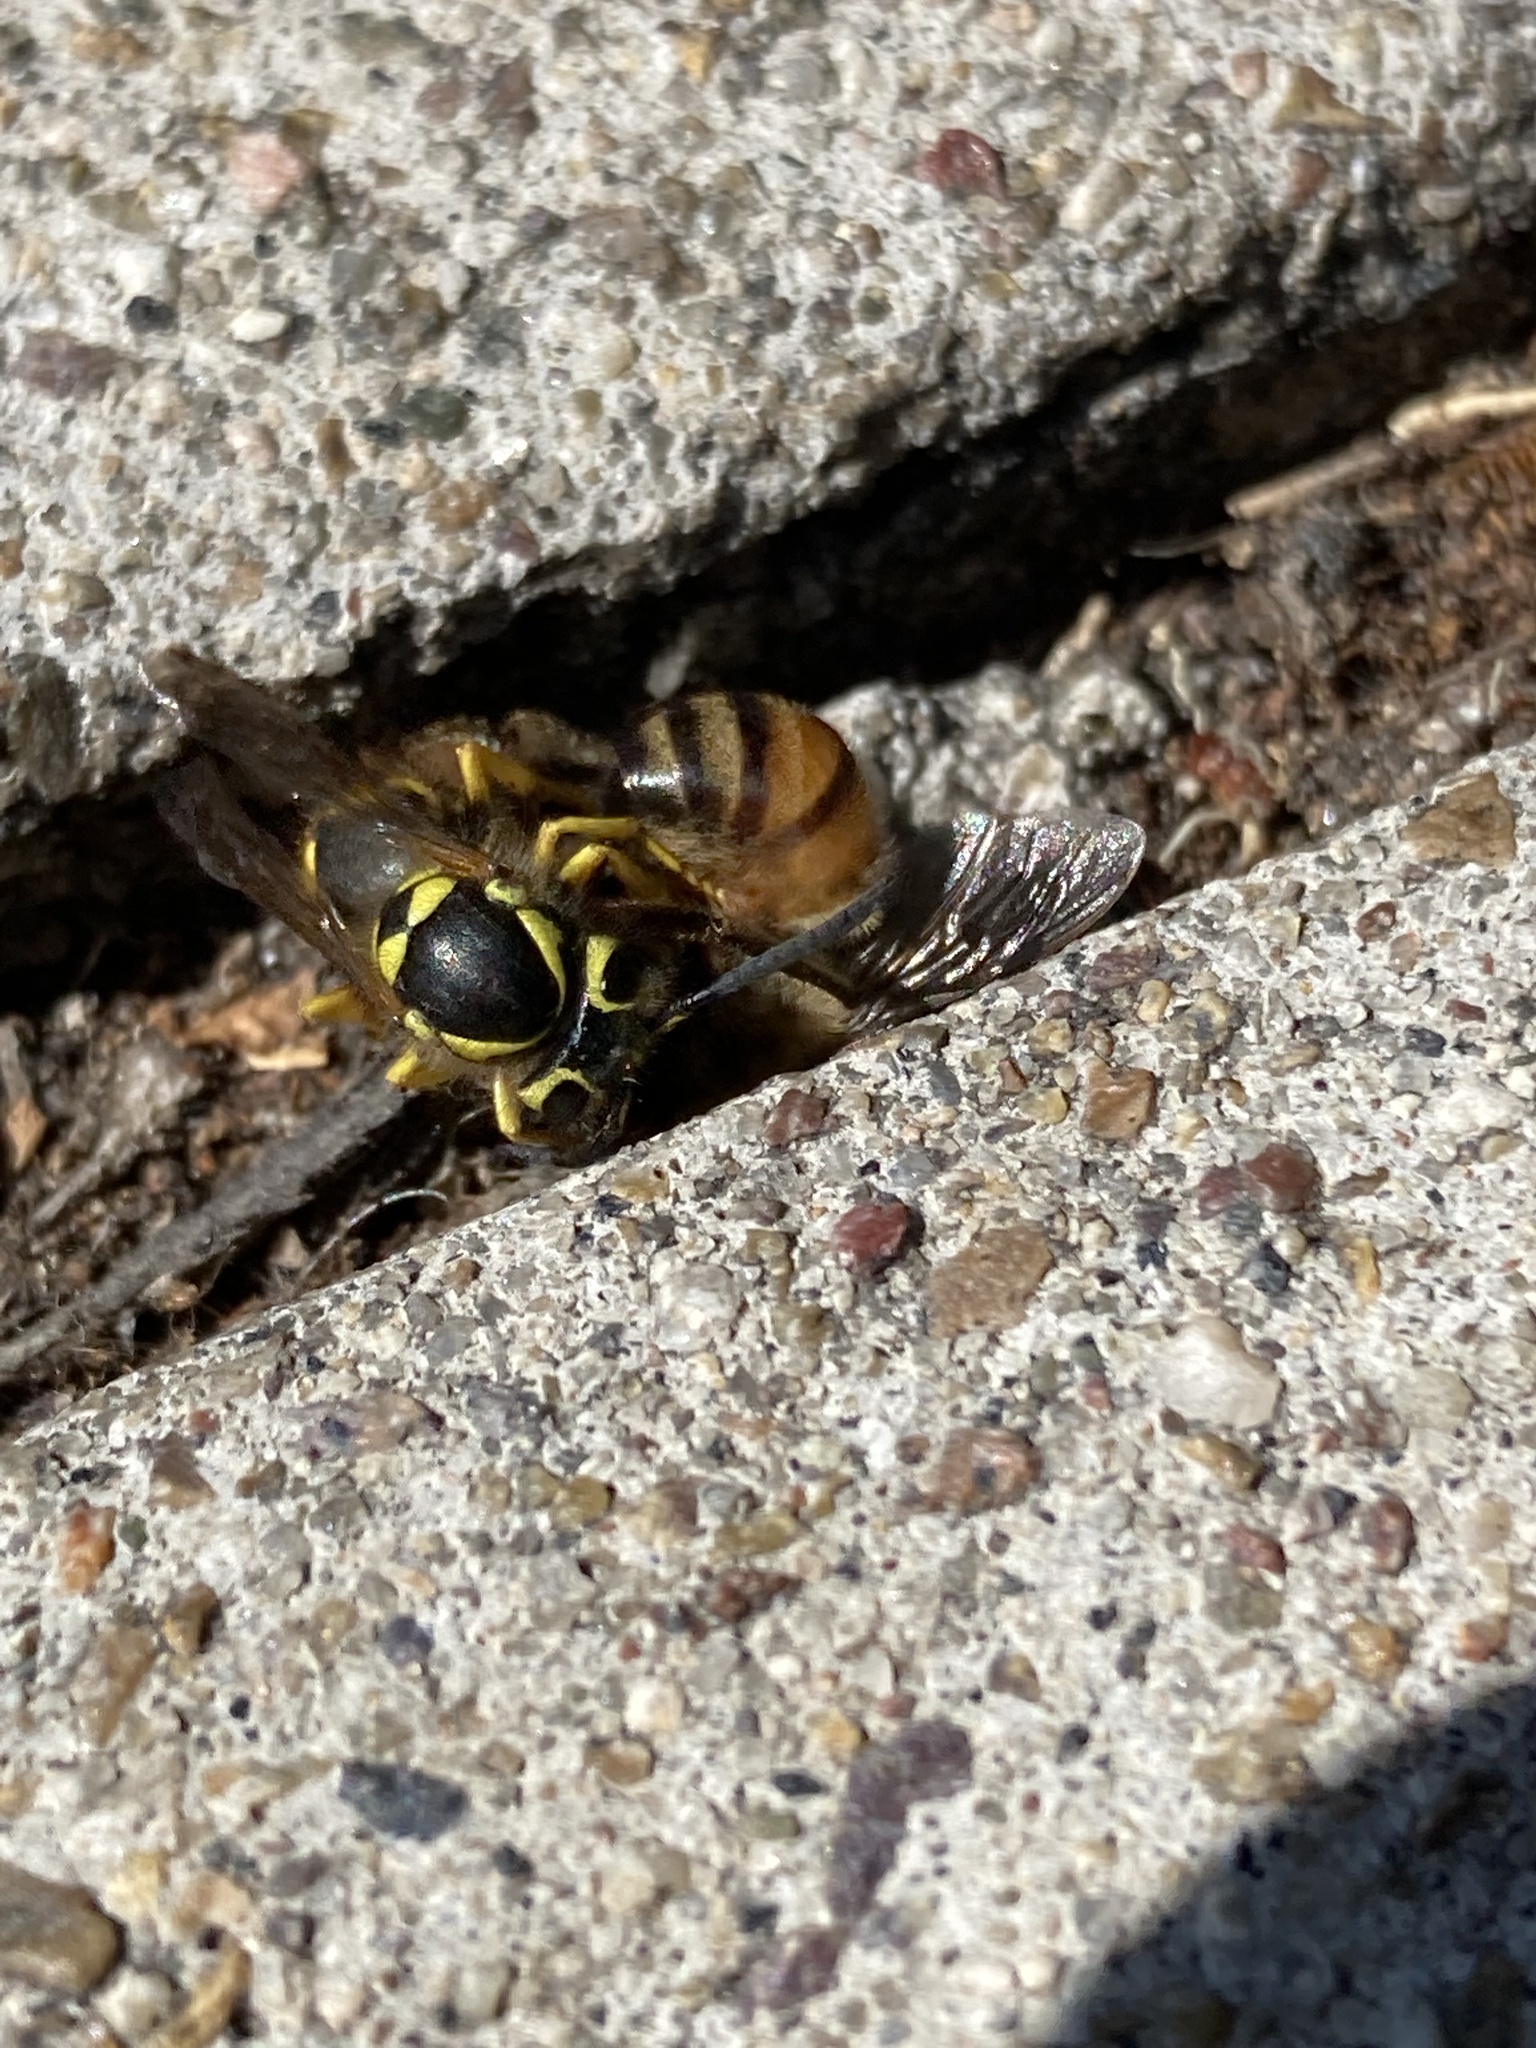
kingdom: Animalia
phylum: Arthropoda
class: Insecta
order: Hymenoptera
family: Vespidae
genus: Vespula
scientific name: Vespula pensylvanica
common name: Western yellowjacket
